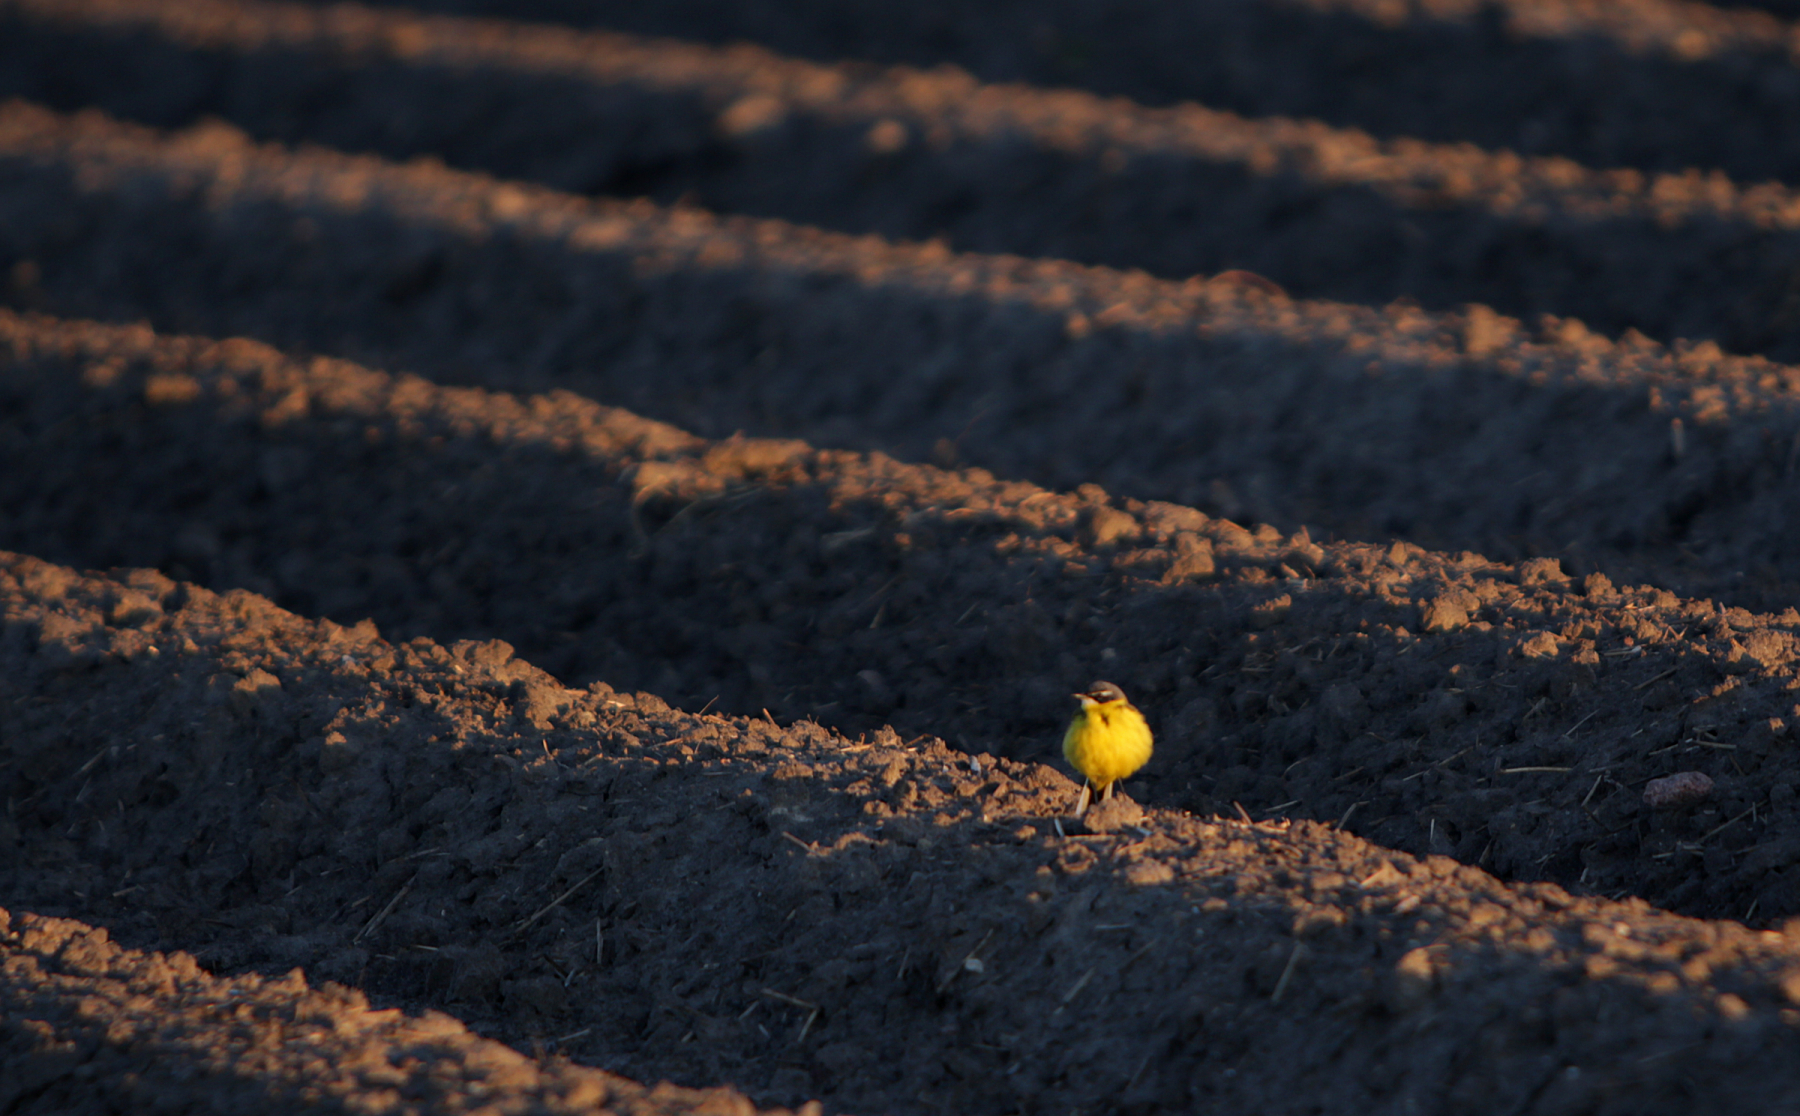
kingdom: Animalia
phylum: Chordata
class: Aves
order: Passeriformes
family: Motacillidae
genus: Motacilla
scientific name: Motacilla flava
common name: Western yellow wagtail
